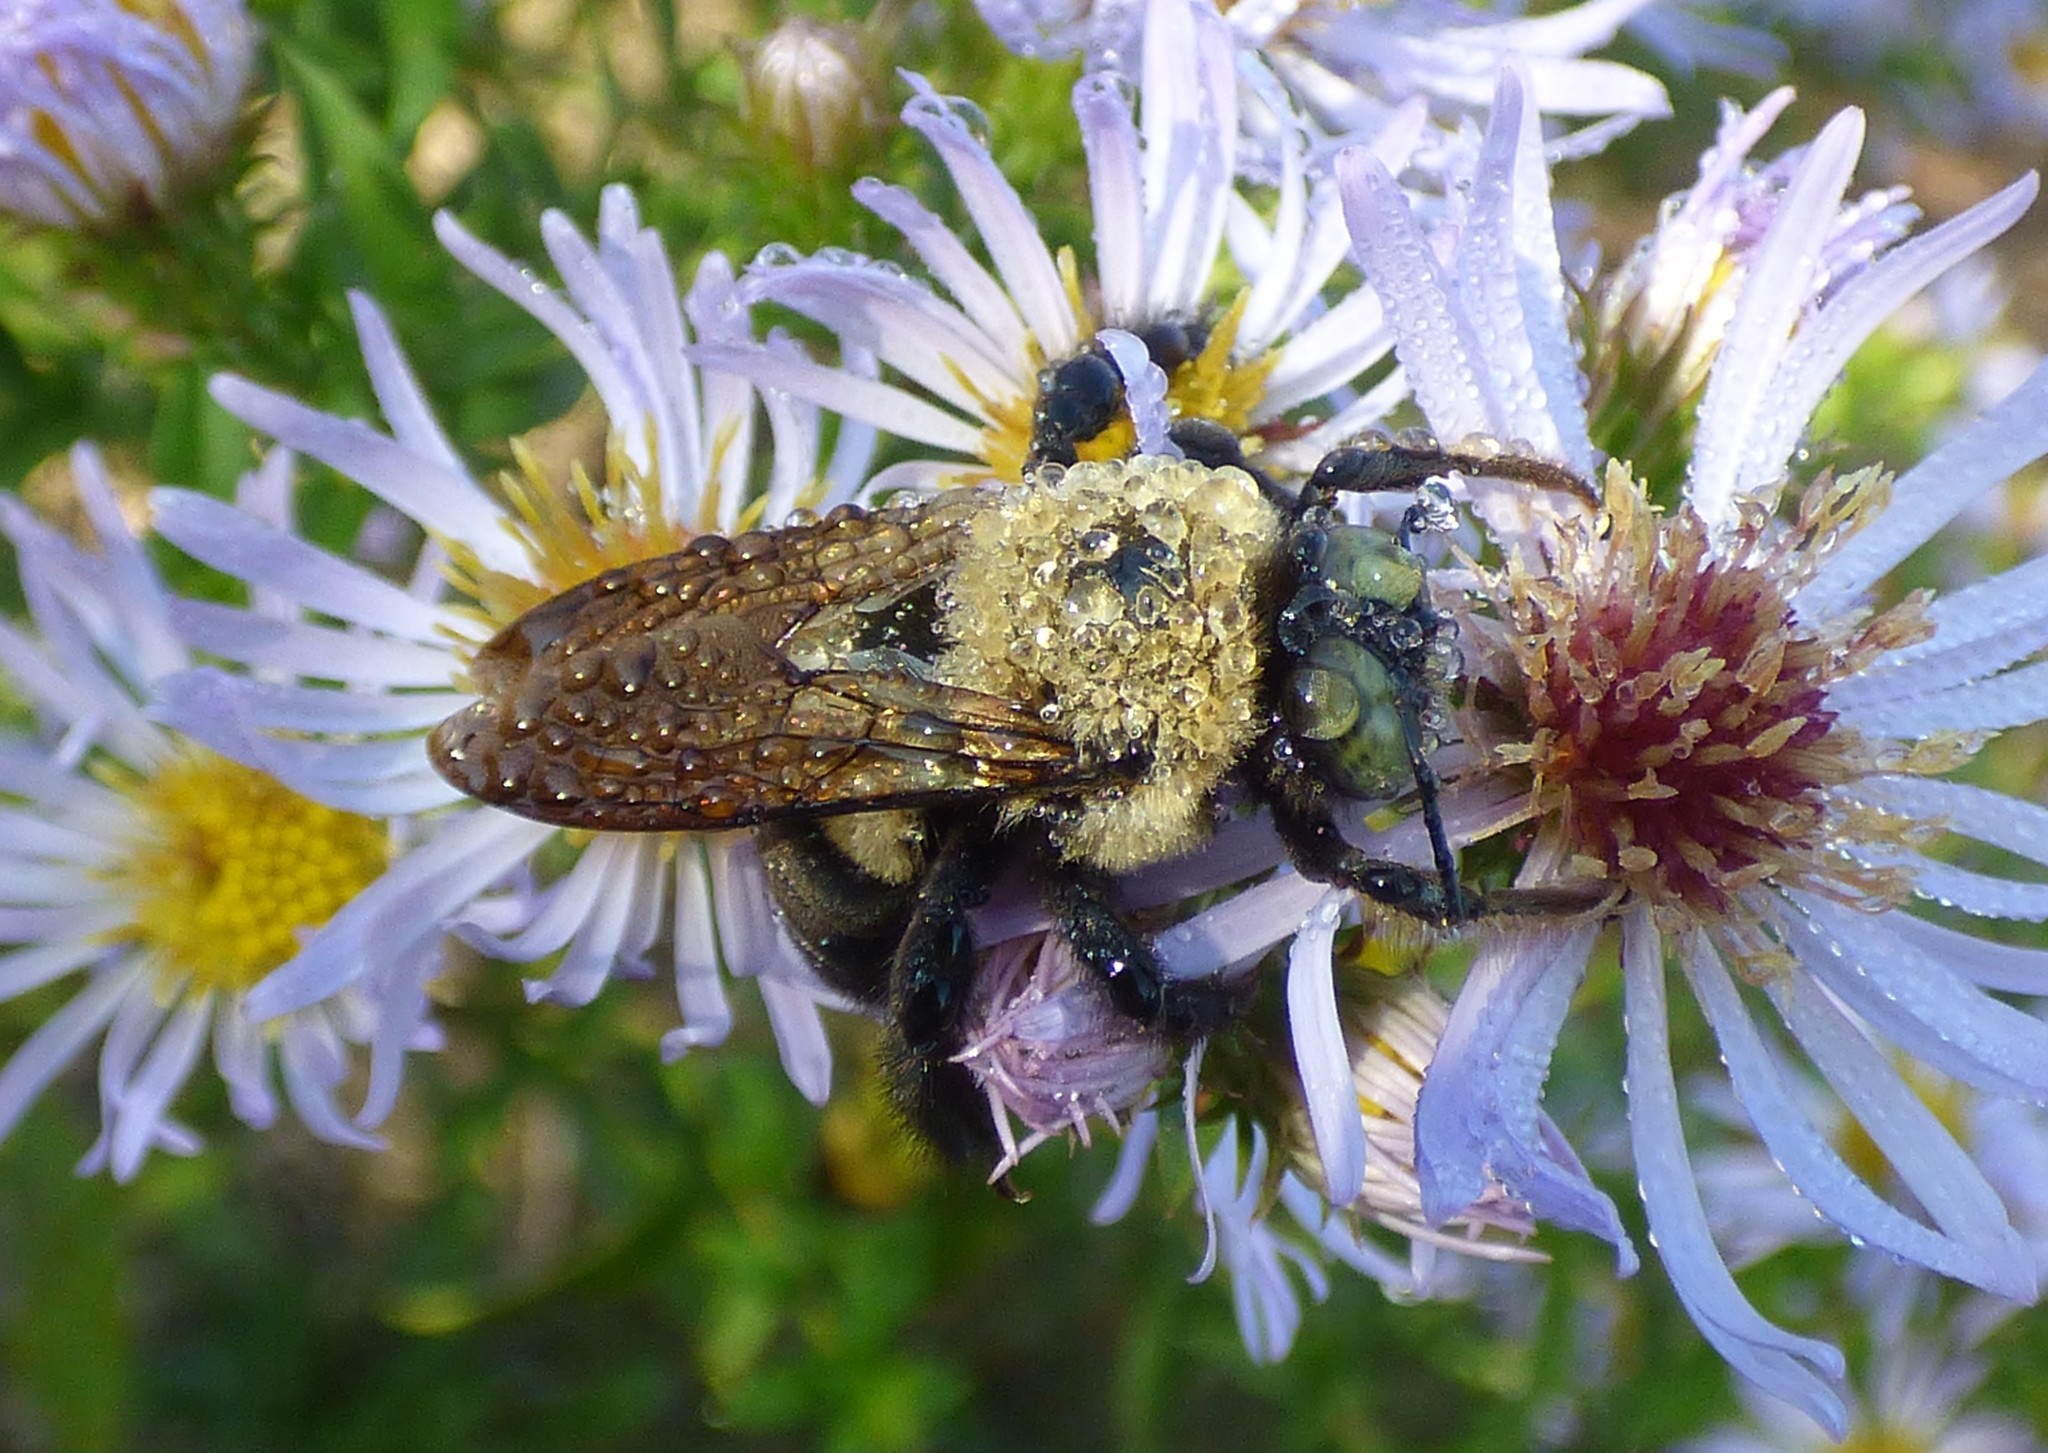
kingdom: Animalia
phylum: Arthropoda
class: Insecta
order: Hymenoptera
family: Apidae
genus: Xylocopa
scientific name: Xylocopa virginica
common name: Carpenter bee
